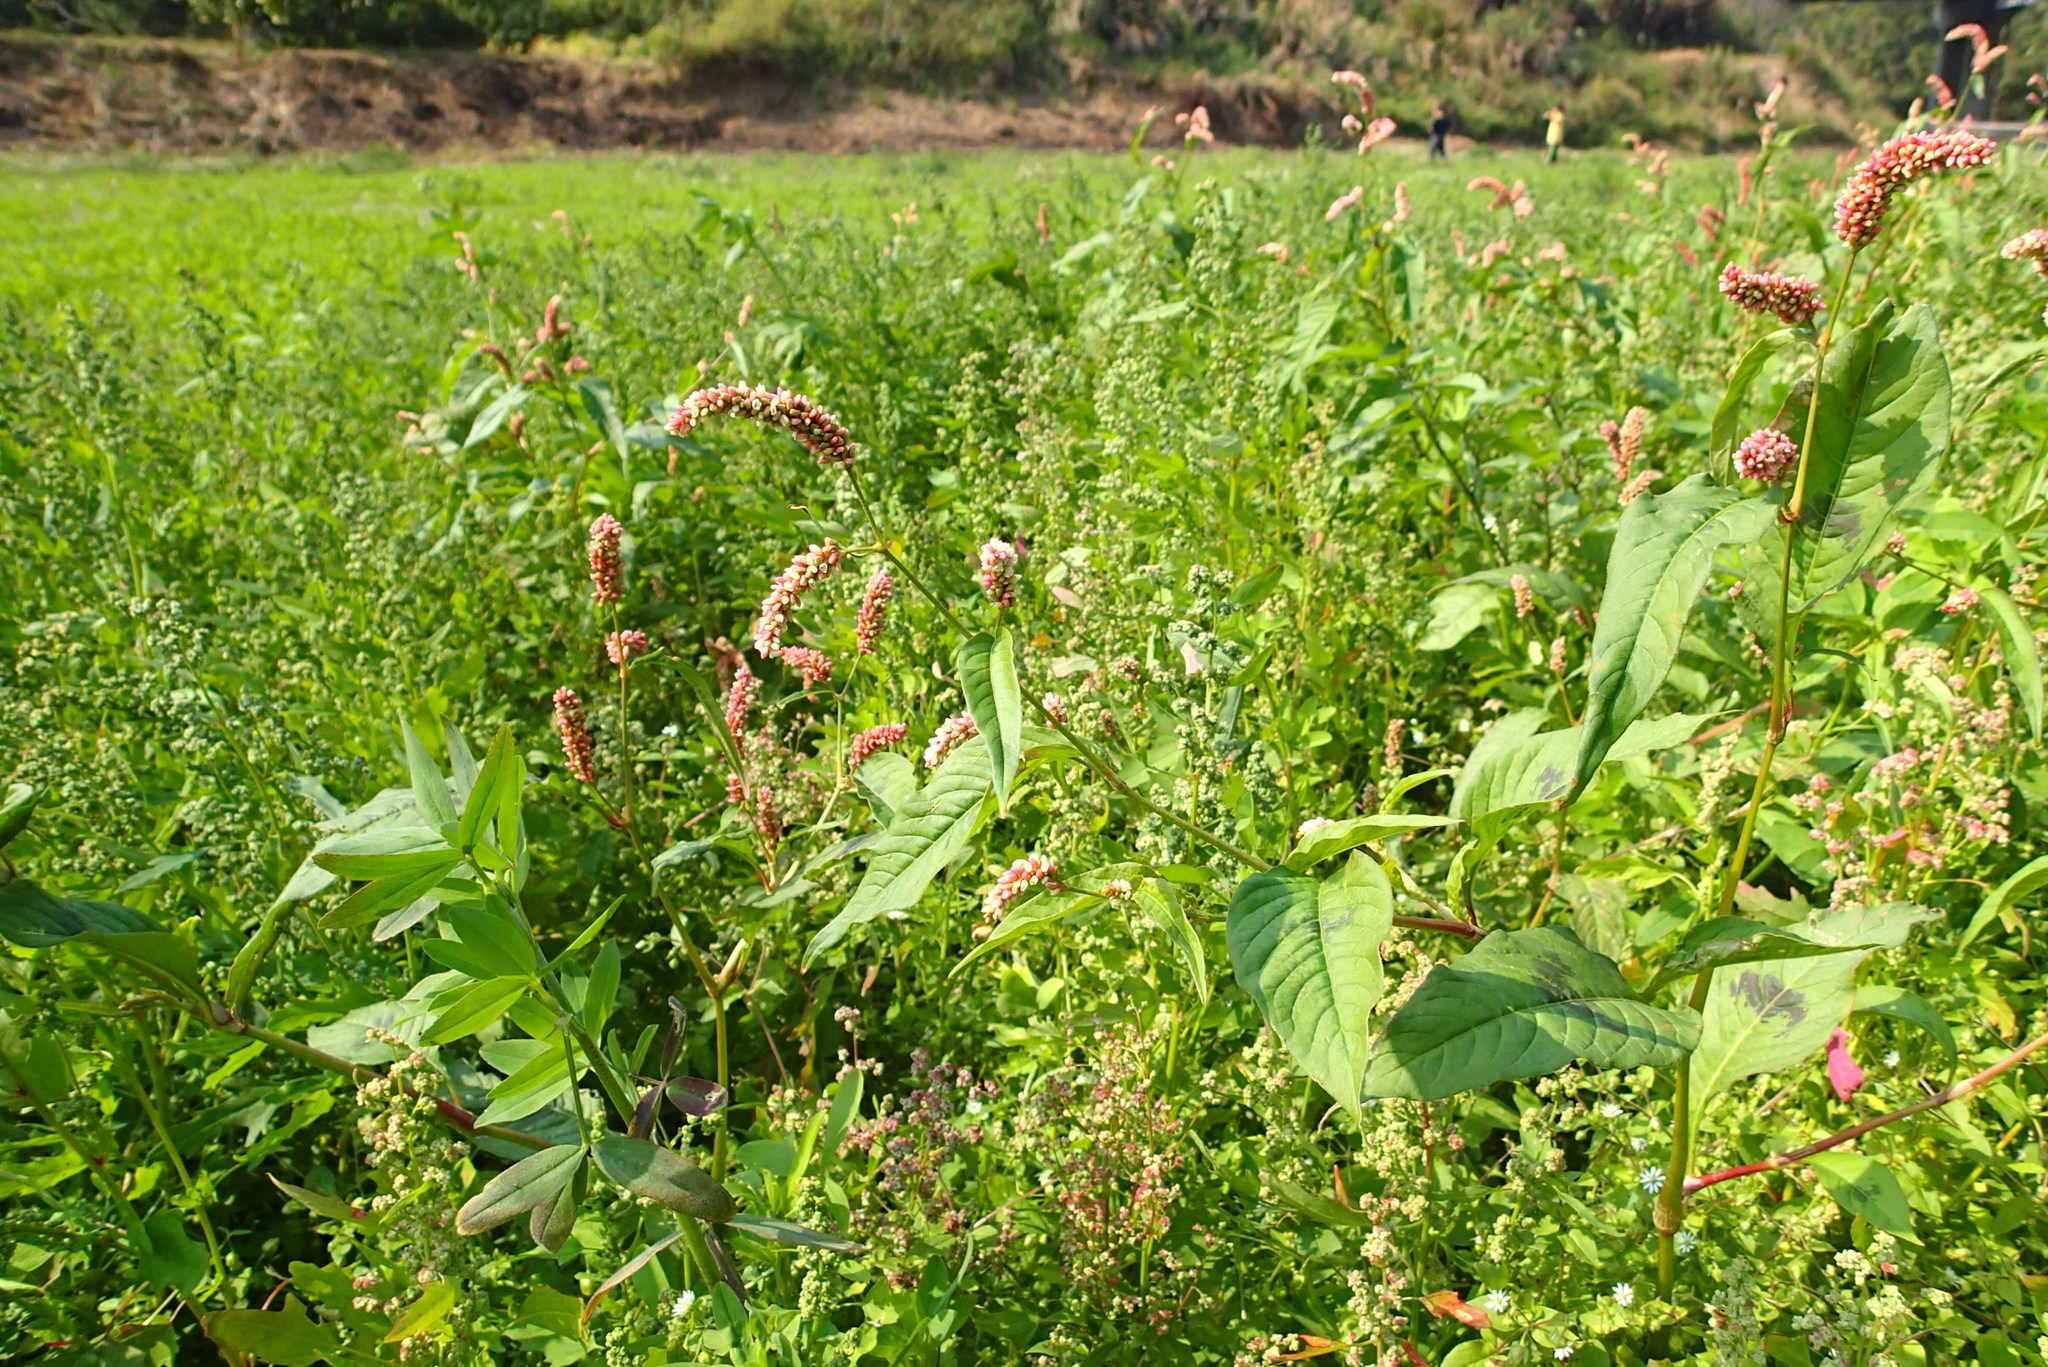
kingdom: Plantae
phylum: Tracheophyta
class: Magnoliopsida
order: Caryophyllales
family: Polygonaceae
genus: Persicaria
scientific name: Persicaria lapathifolia
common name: Curlytop knotweed
